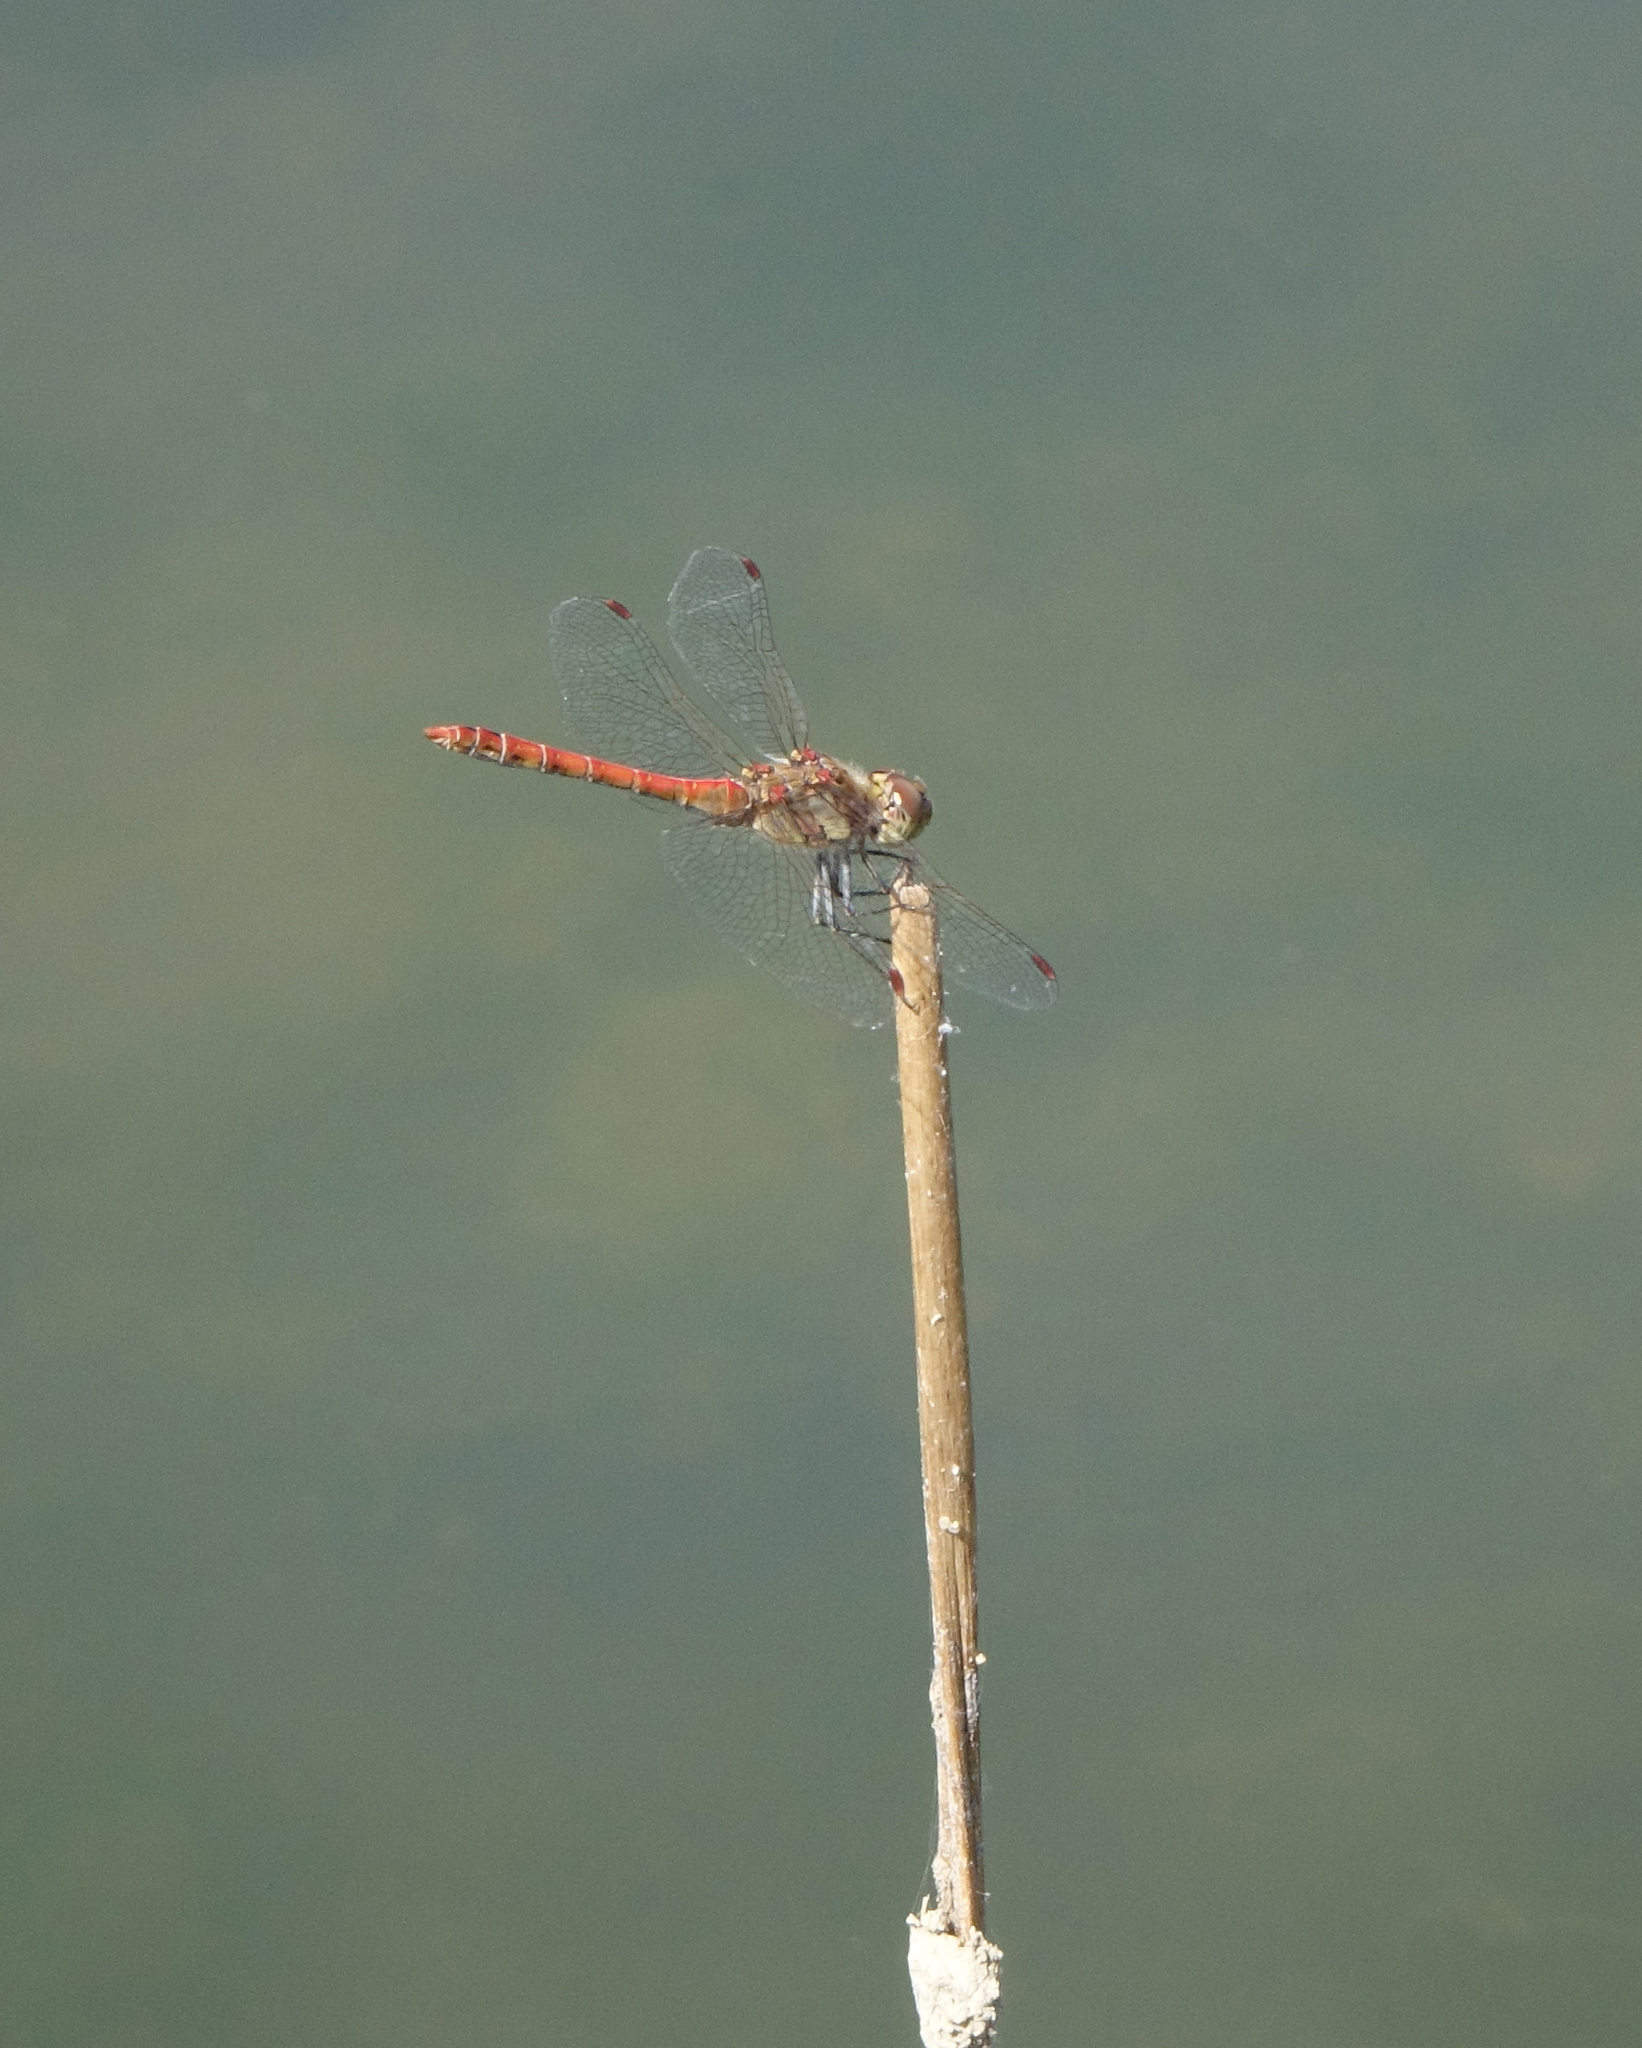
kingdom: Animalia
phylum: Arthropoda
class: Insecta
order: Odonata
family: Libellulidae
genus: Sympetrum
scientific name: Sympetrum striolatum
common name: Common darter
